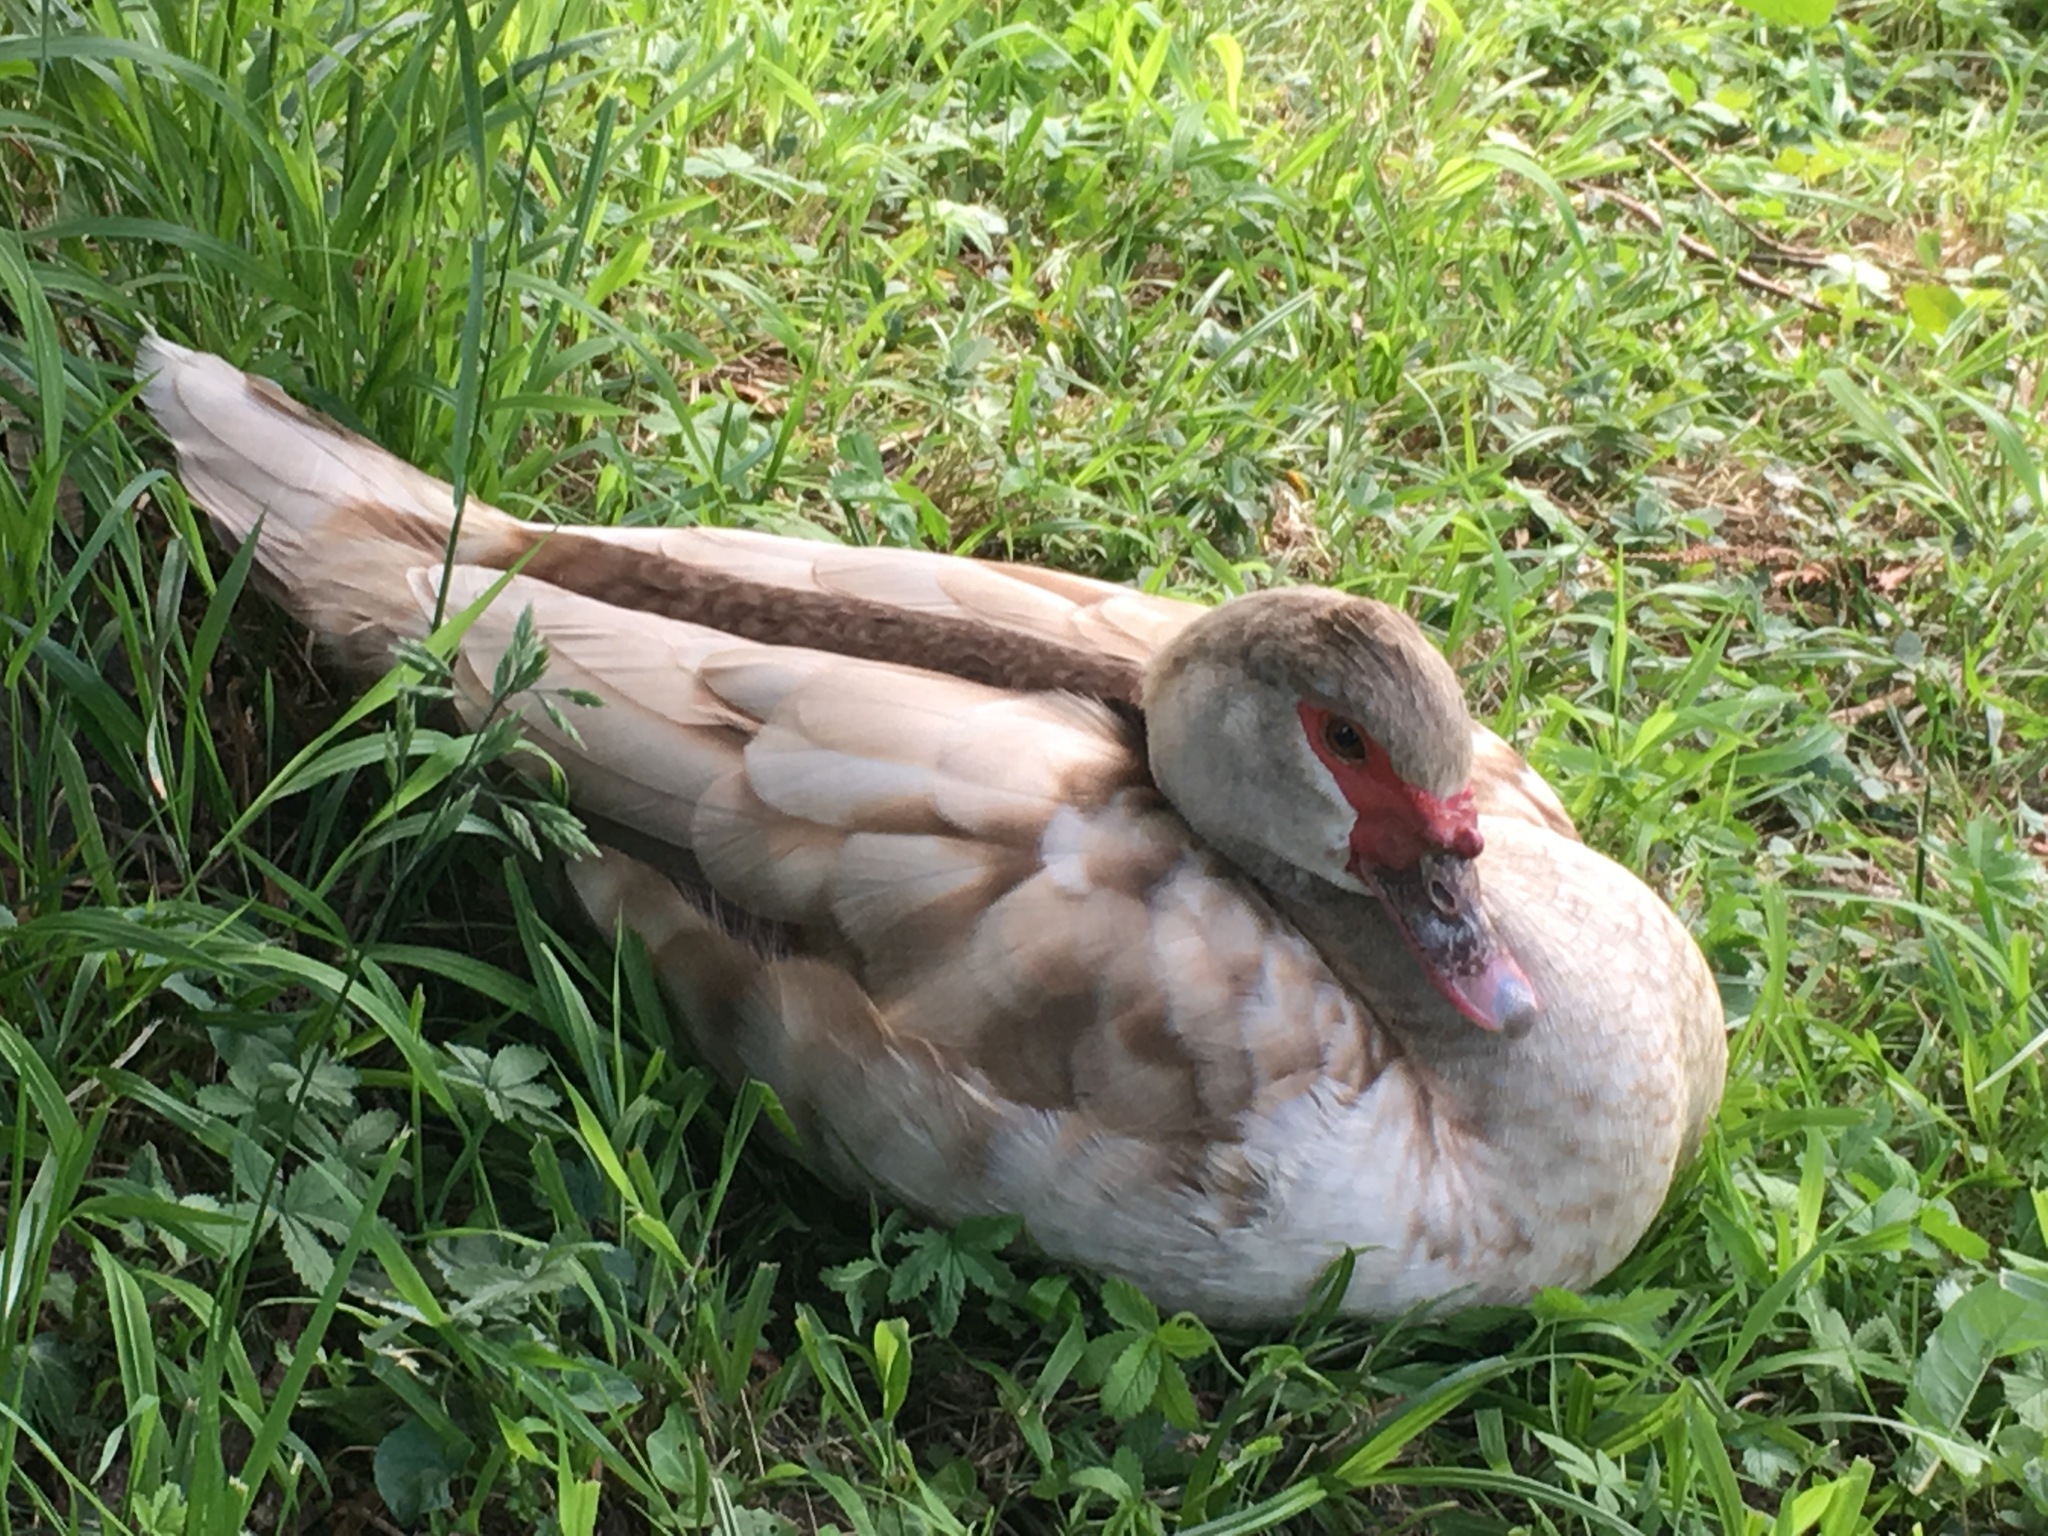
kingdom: Animalia
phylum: Chordata
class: Aves
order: Anseriformes
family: Anatidae
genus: Cairina
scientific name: Cairina moschata
